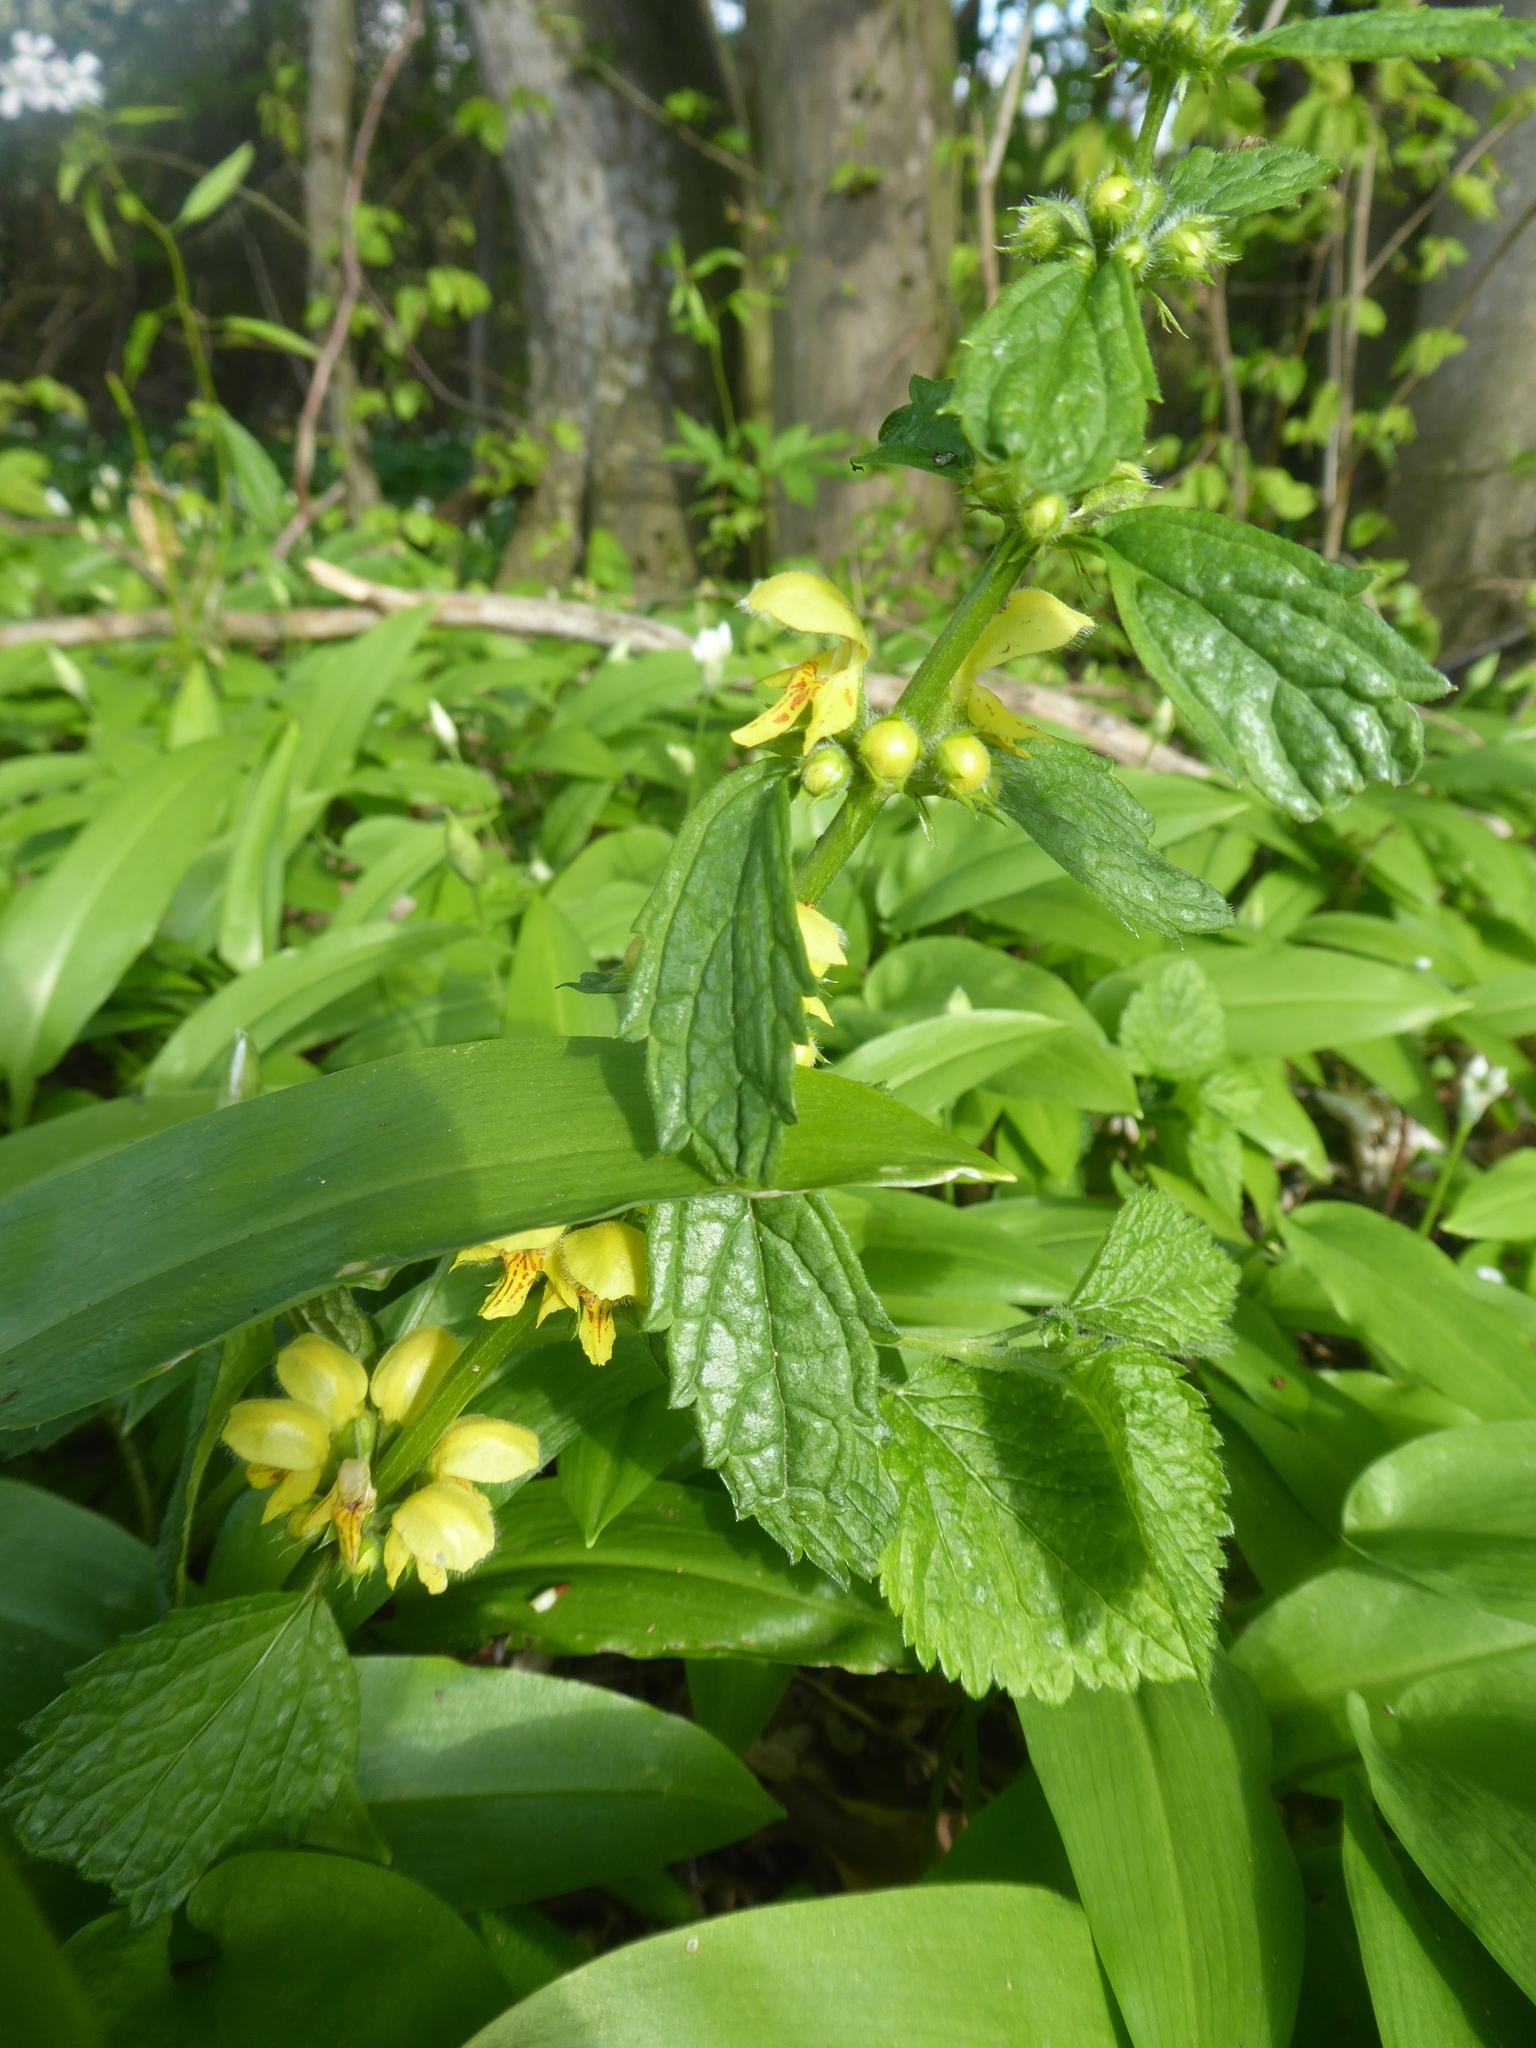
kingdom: Plantae
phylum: Tracheophyta
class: Magnoliopsida
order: Lamiales
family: Lamiaceae
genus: Lamium
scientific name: Lamium galeobdolon
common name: Yellow archangel
